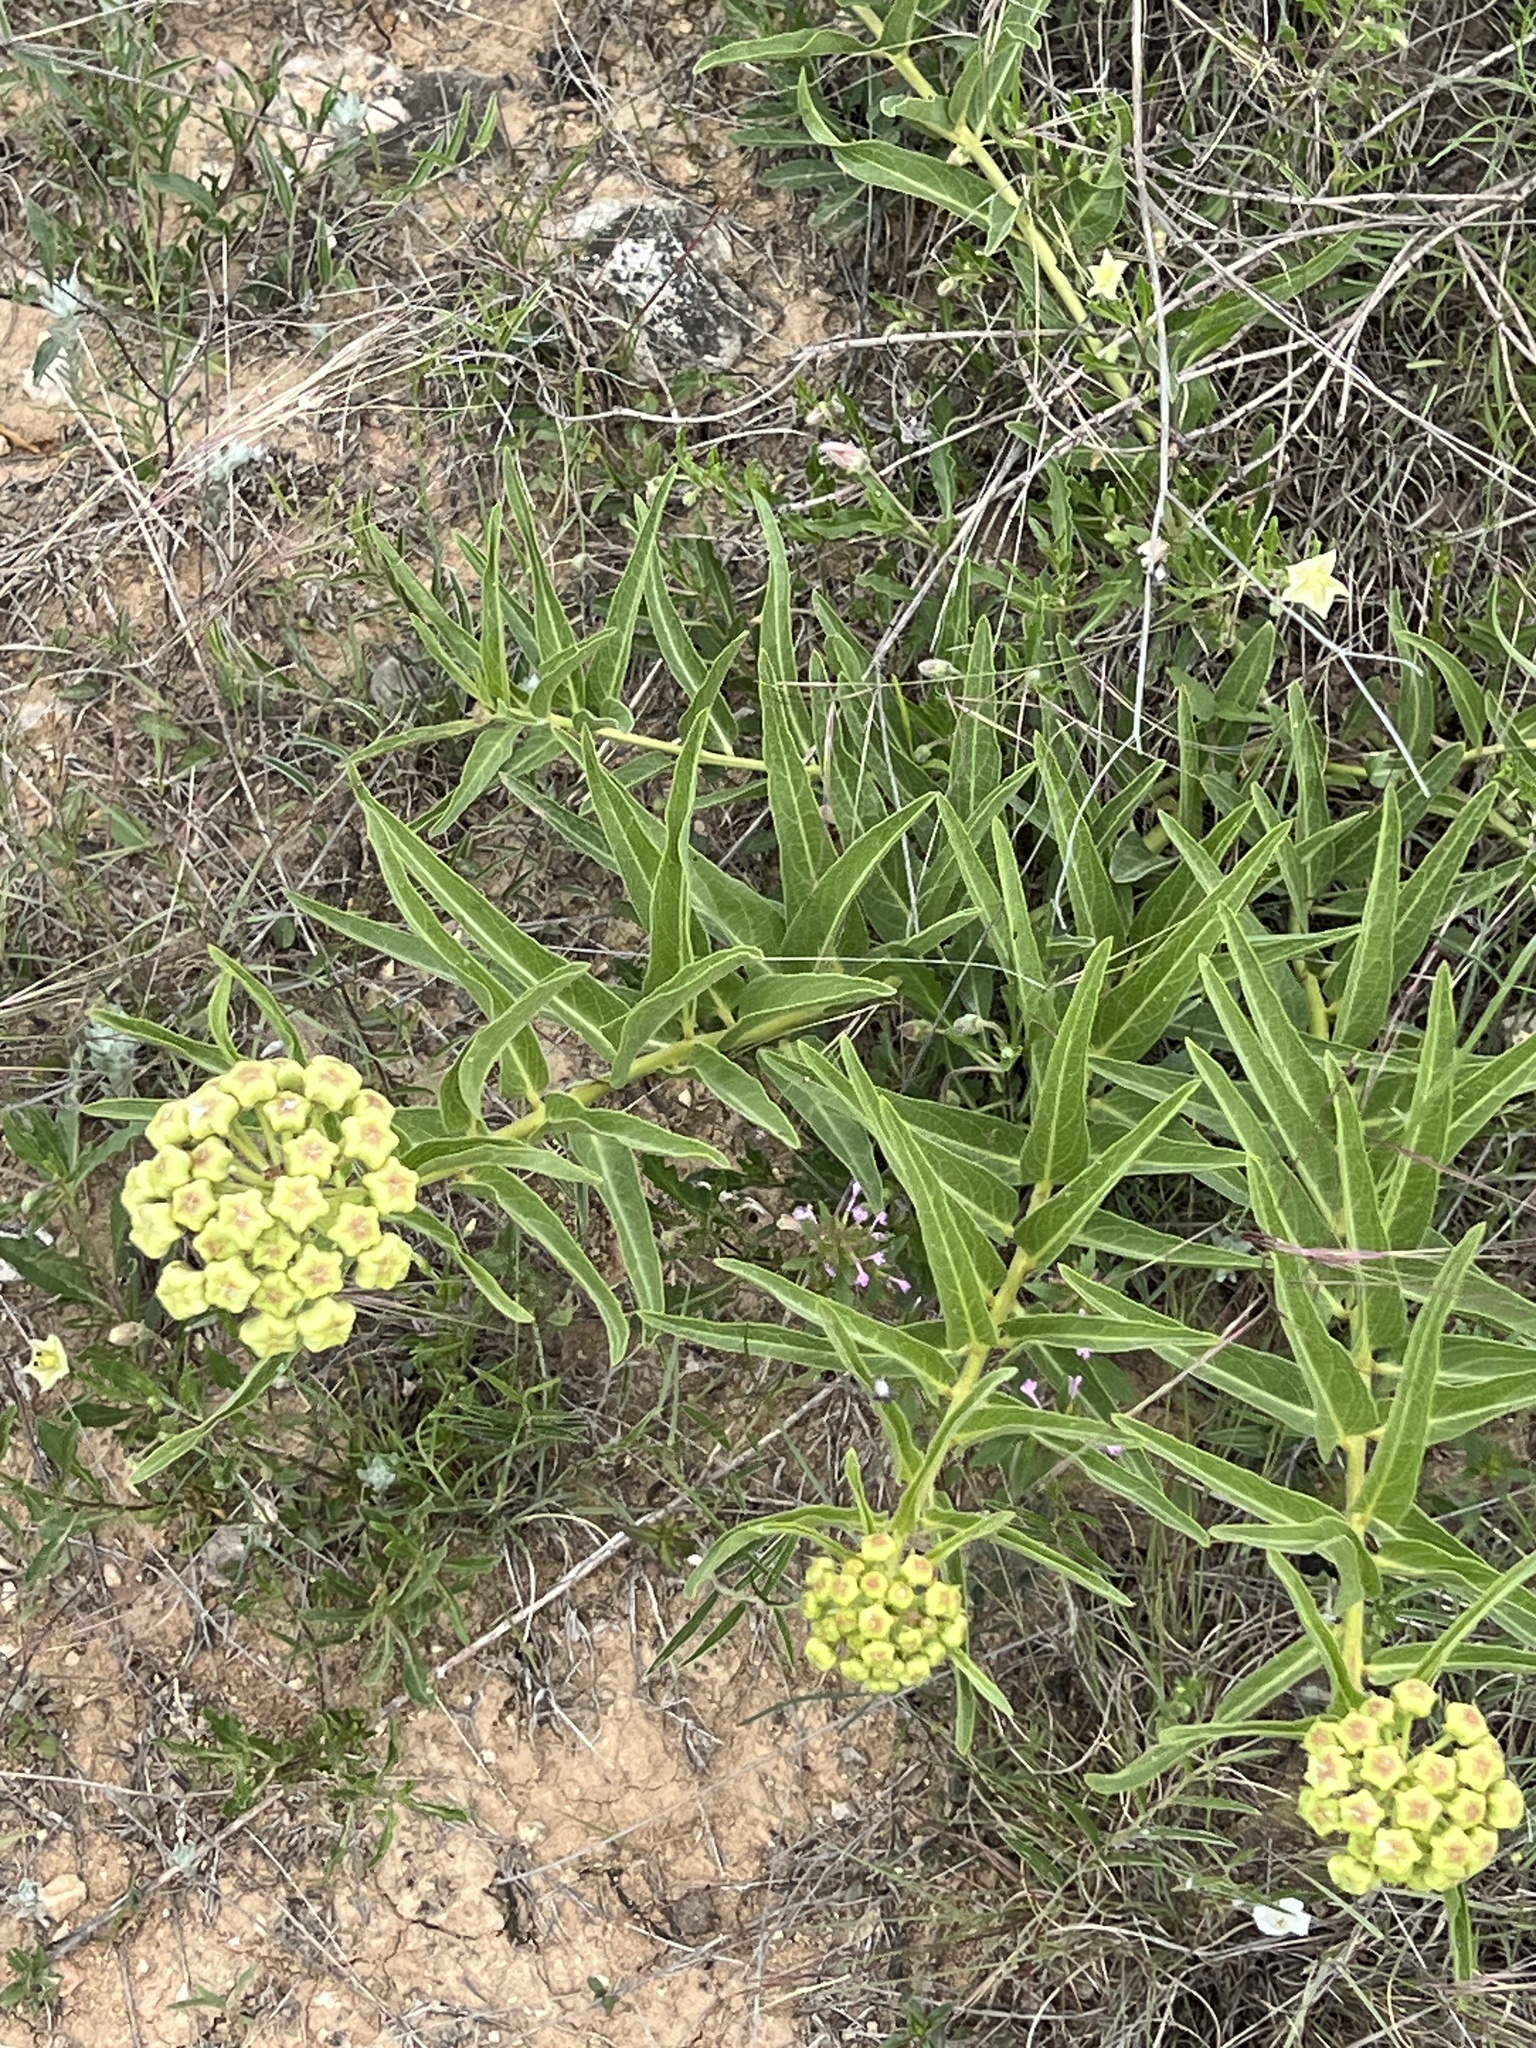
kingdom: Plantae
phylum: Tracheophyta
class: Magnoliopsida
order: Gentianales
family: Apocynaceae
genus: Asclepias
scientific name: Asclepias asperula
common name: Antelope horns
